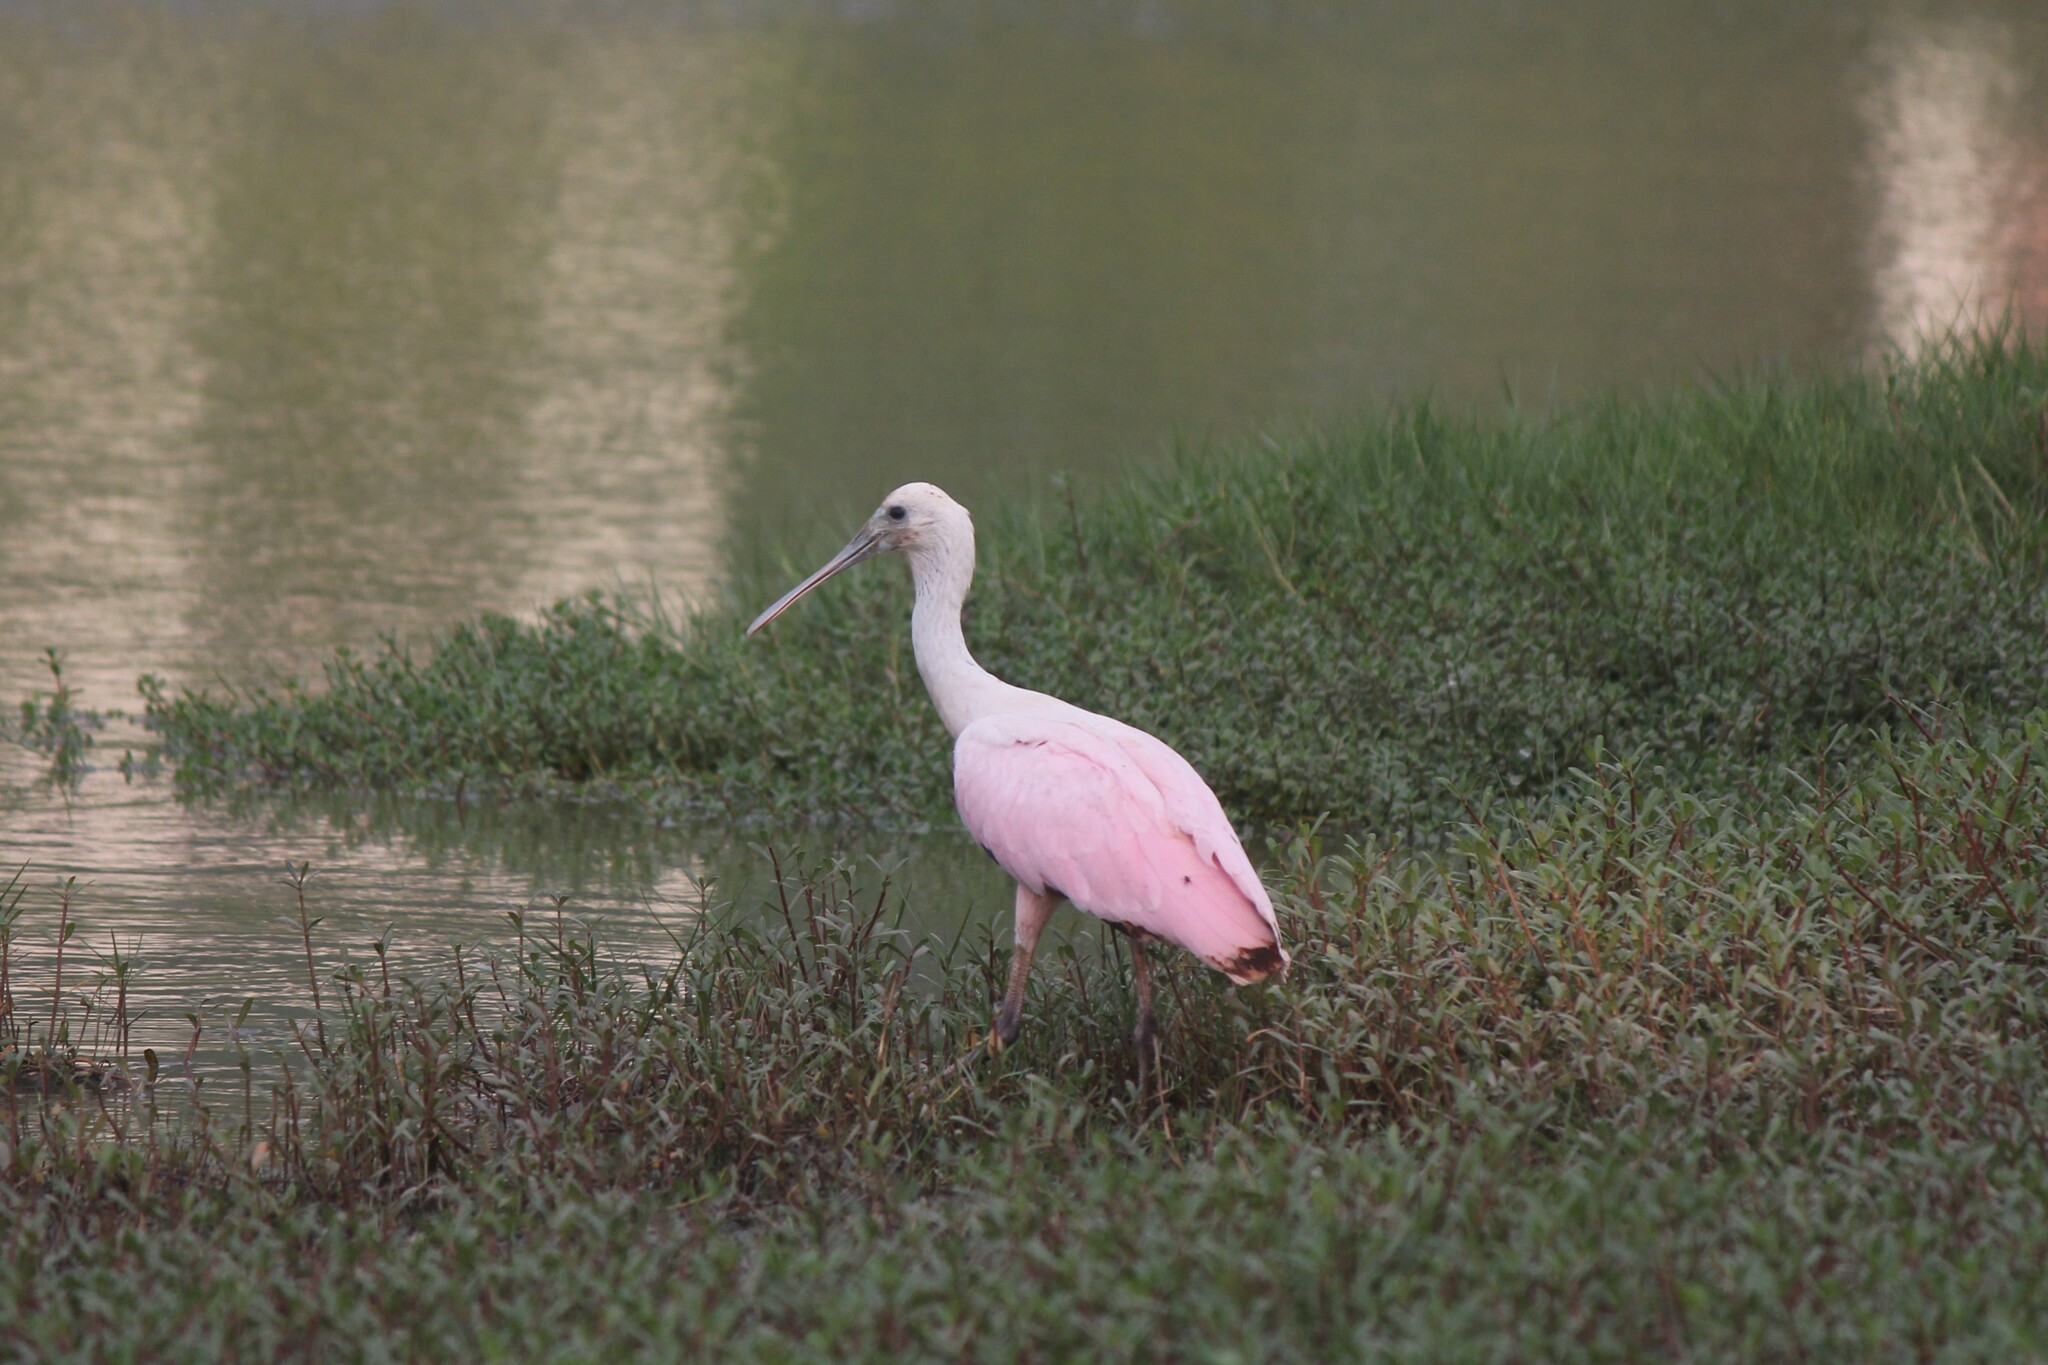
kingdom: Animalia
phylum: Chordata
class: Aves
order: Pelecaniformes
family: Threskiornithidae
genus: Platalea
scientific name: Platalea ajaja
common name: Roseate spoonbill
